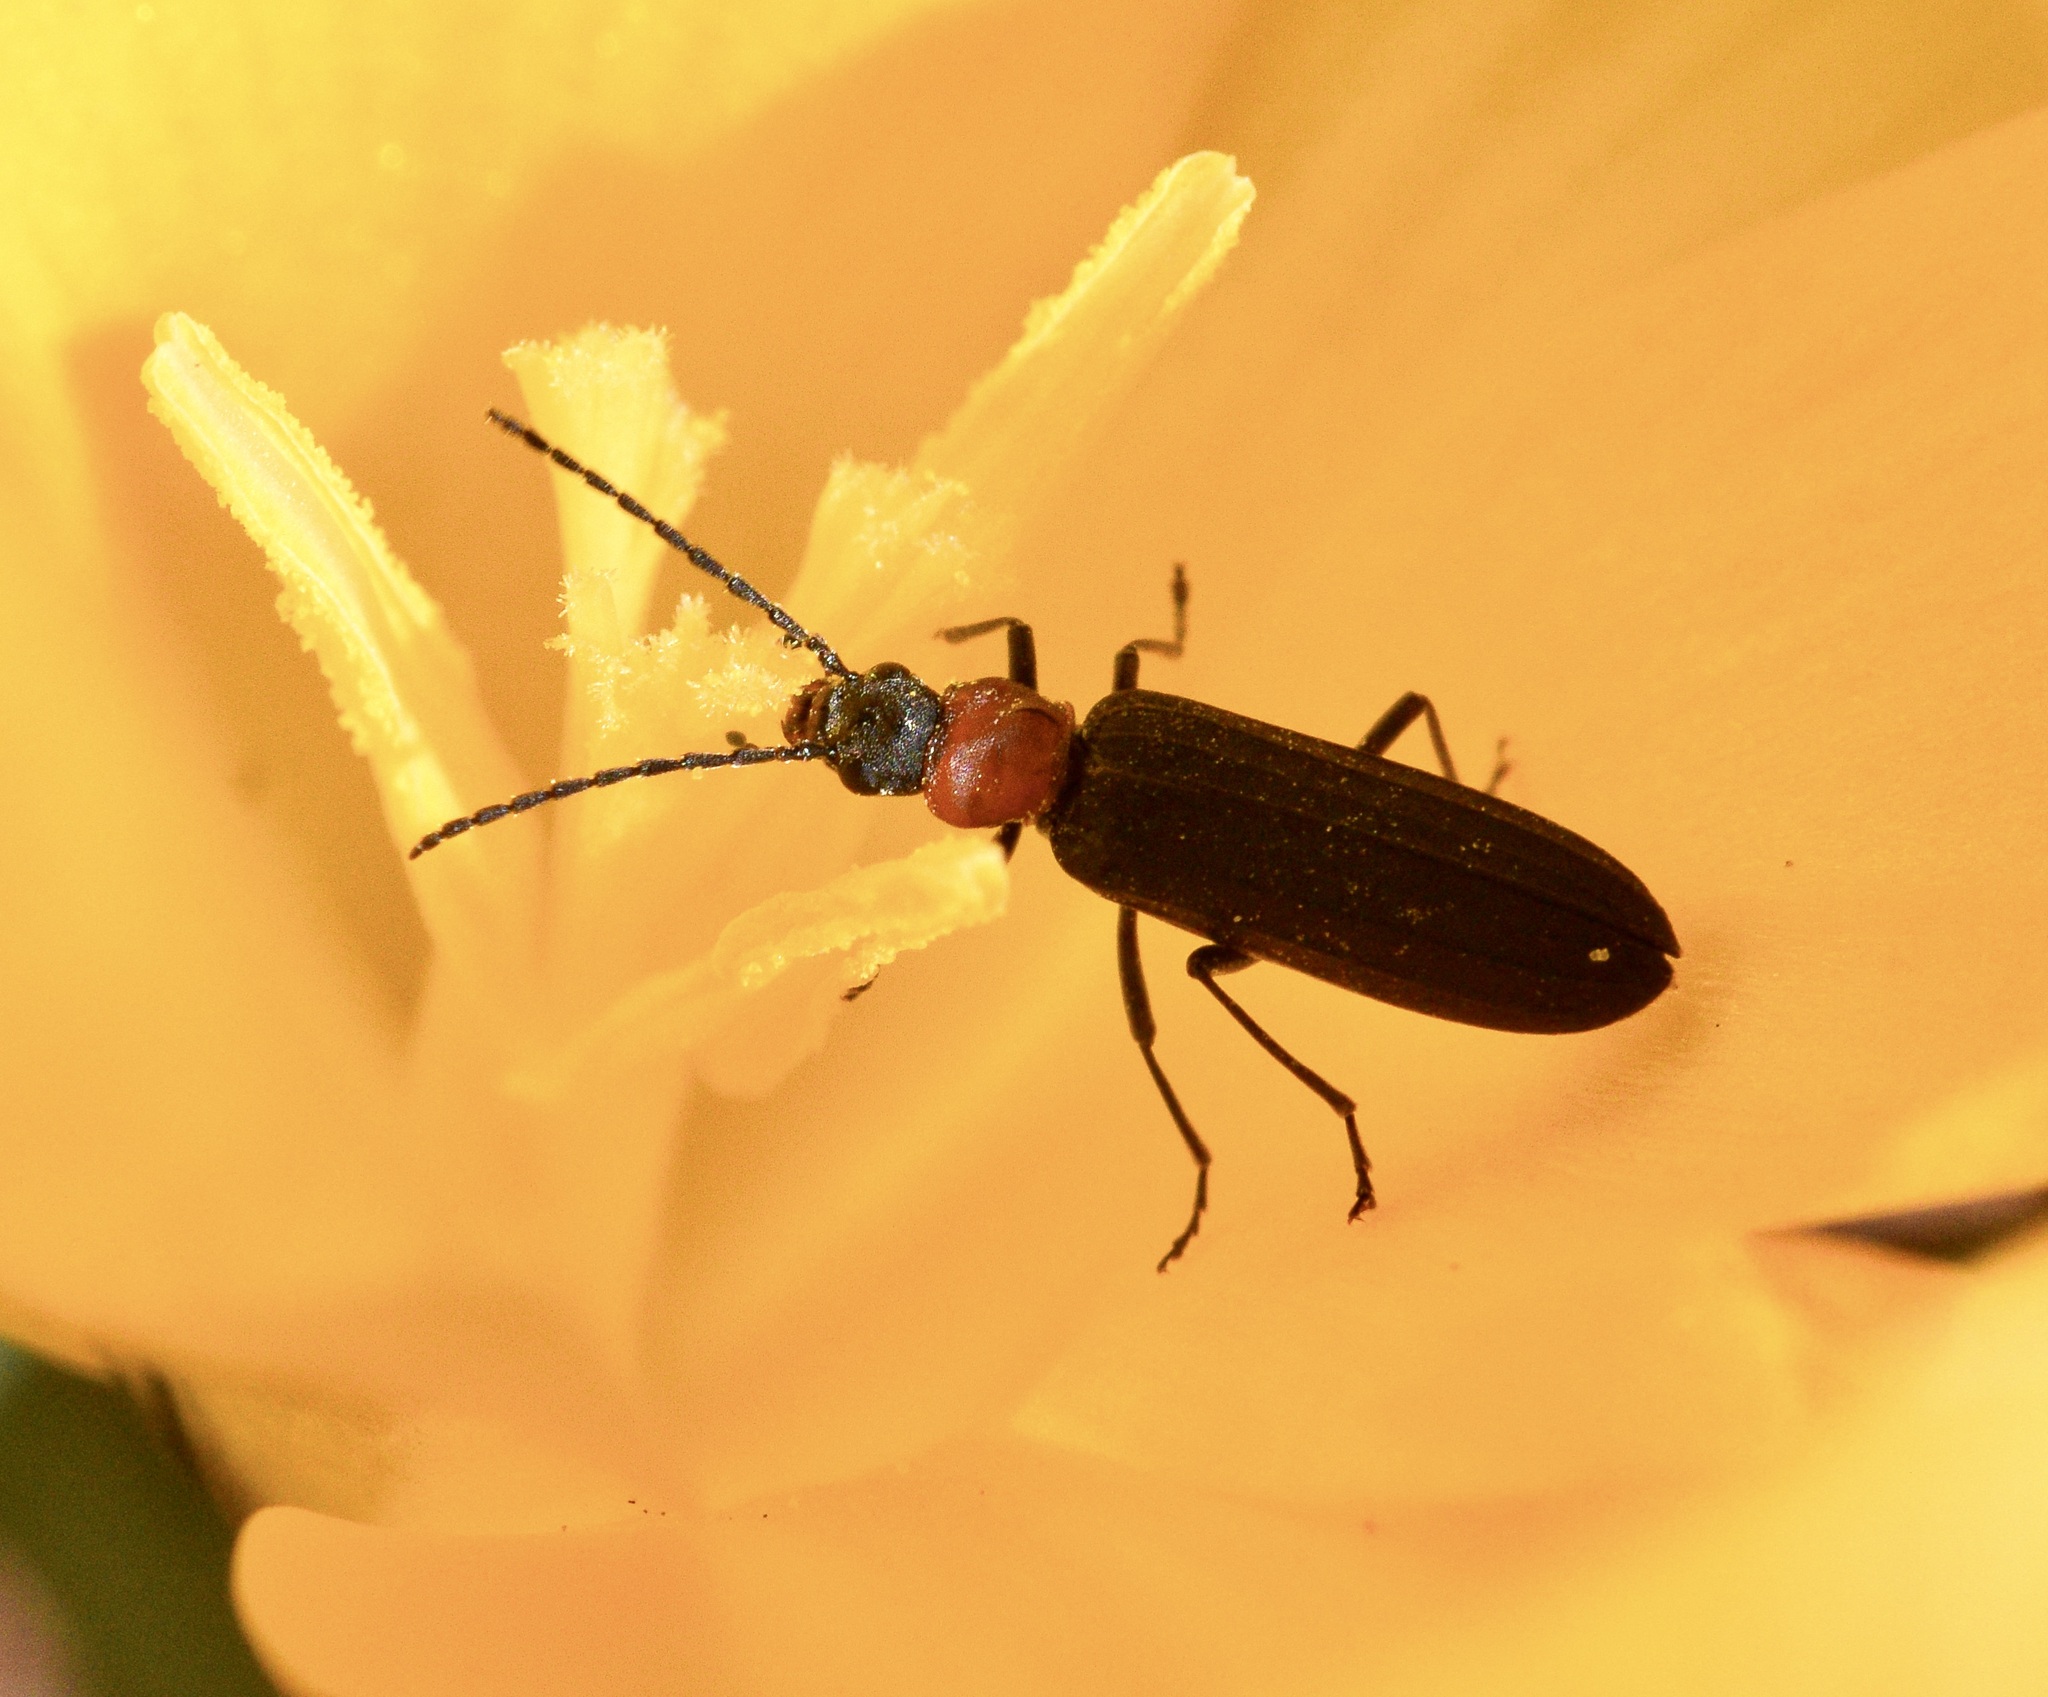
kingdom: Animalia
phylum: Arthropoda
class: Insecta
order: Coleoptera
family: Oedemeridae
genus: Ischnomera
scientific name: Ischnomera
